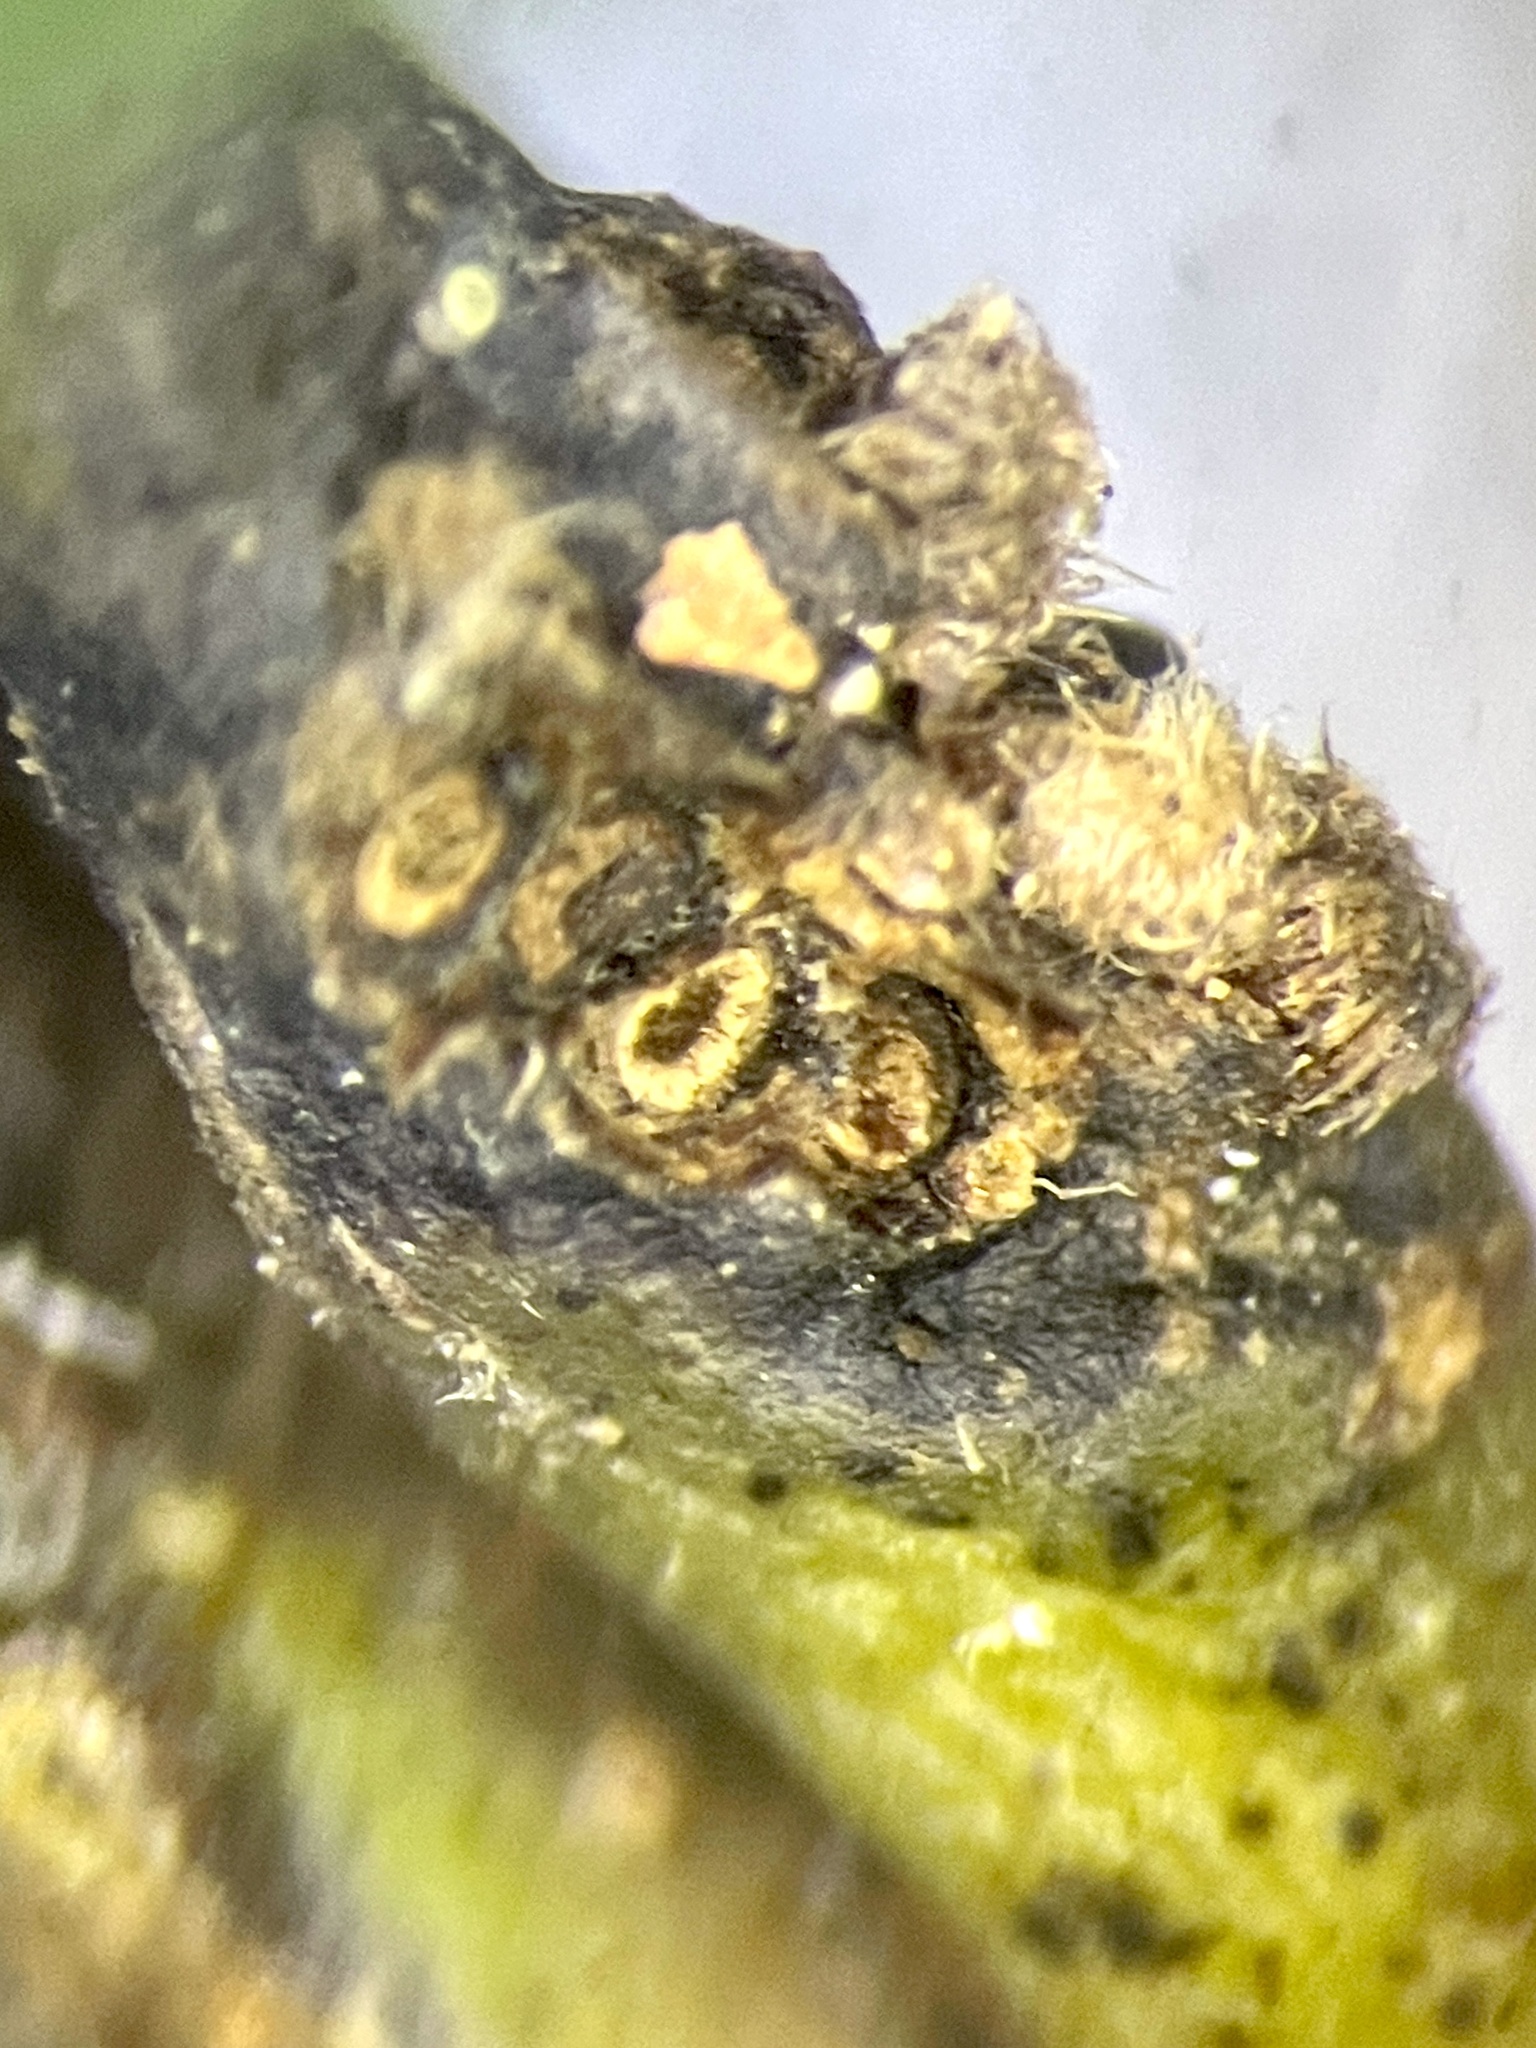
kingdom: Animalia
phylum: Arthropoda
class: Insecta
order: Hymenoptera
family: Cynipidae
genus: Andricus
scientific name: Andricus quercusflocci
